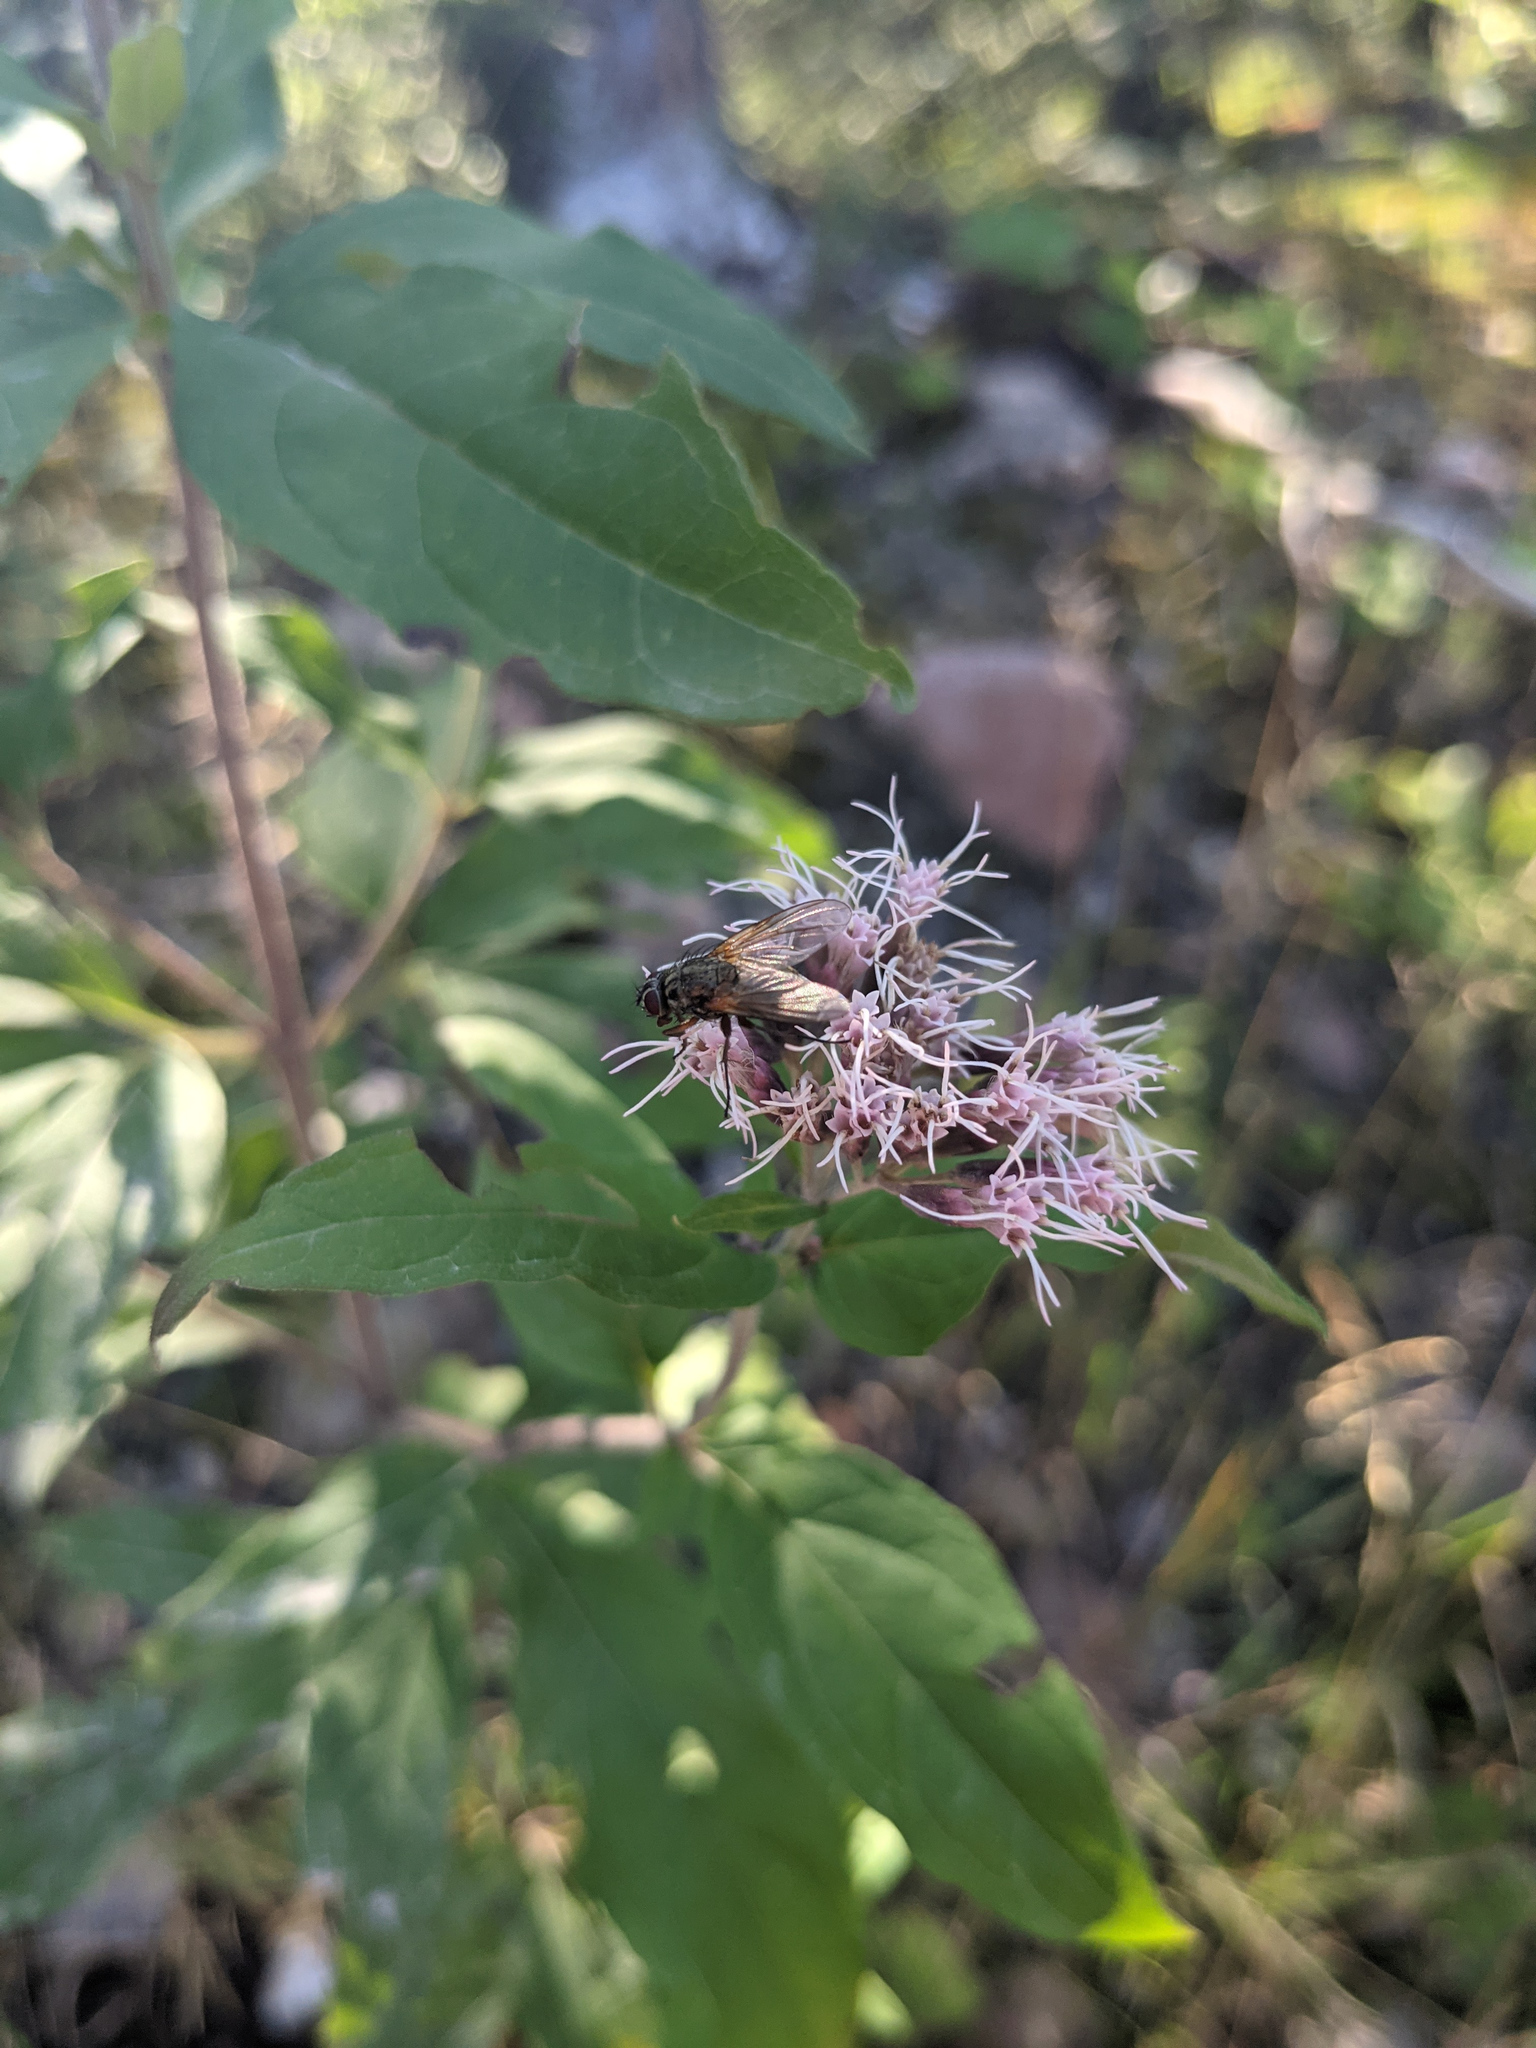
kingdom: Plantae
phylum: Tracheophyta
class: Magnoliopsida
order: Asterales
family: Asteraceae
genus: Eupatorium
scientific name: Eupatorium cannabinum
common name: Hemp-agrimony
